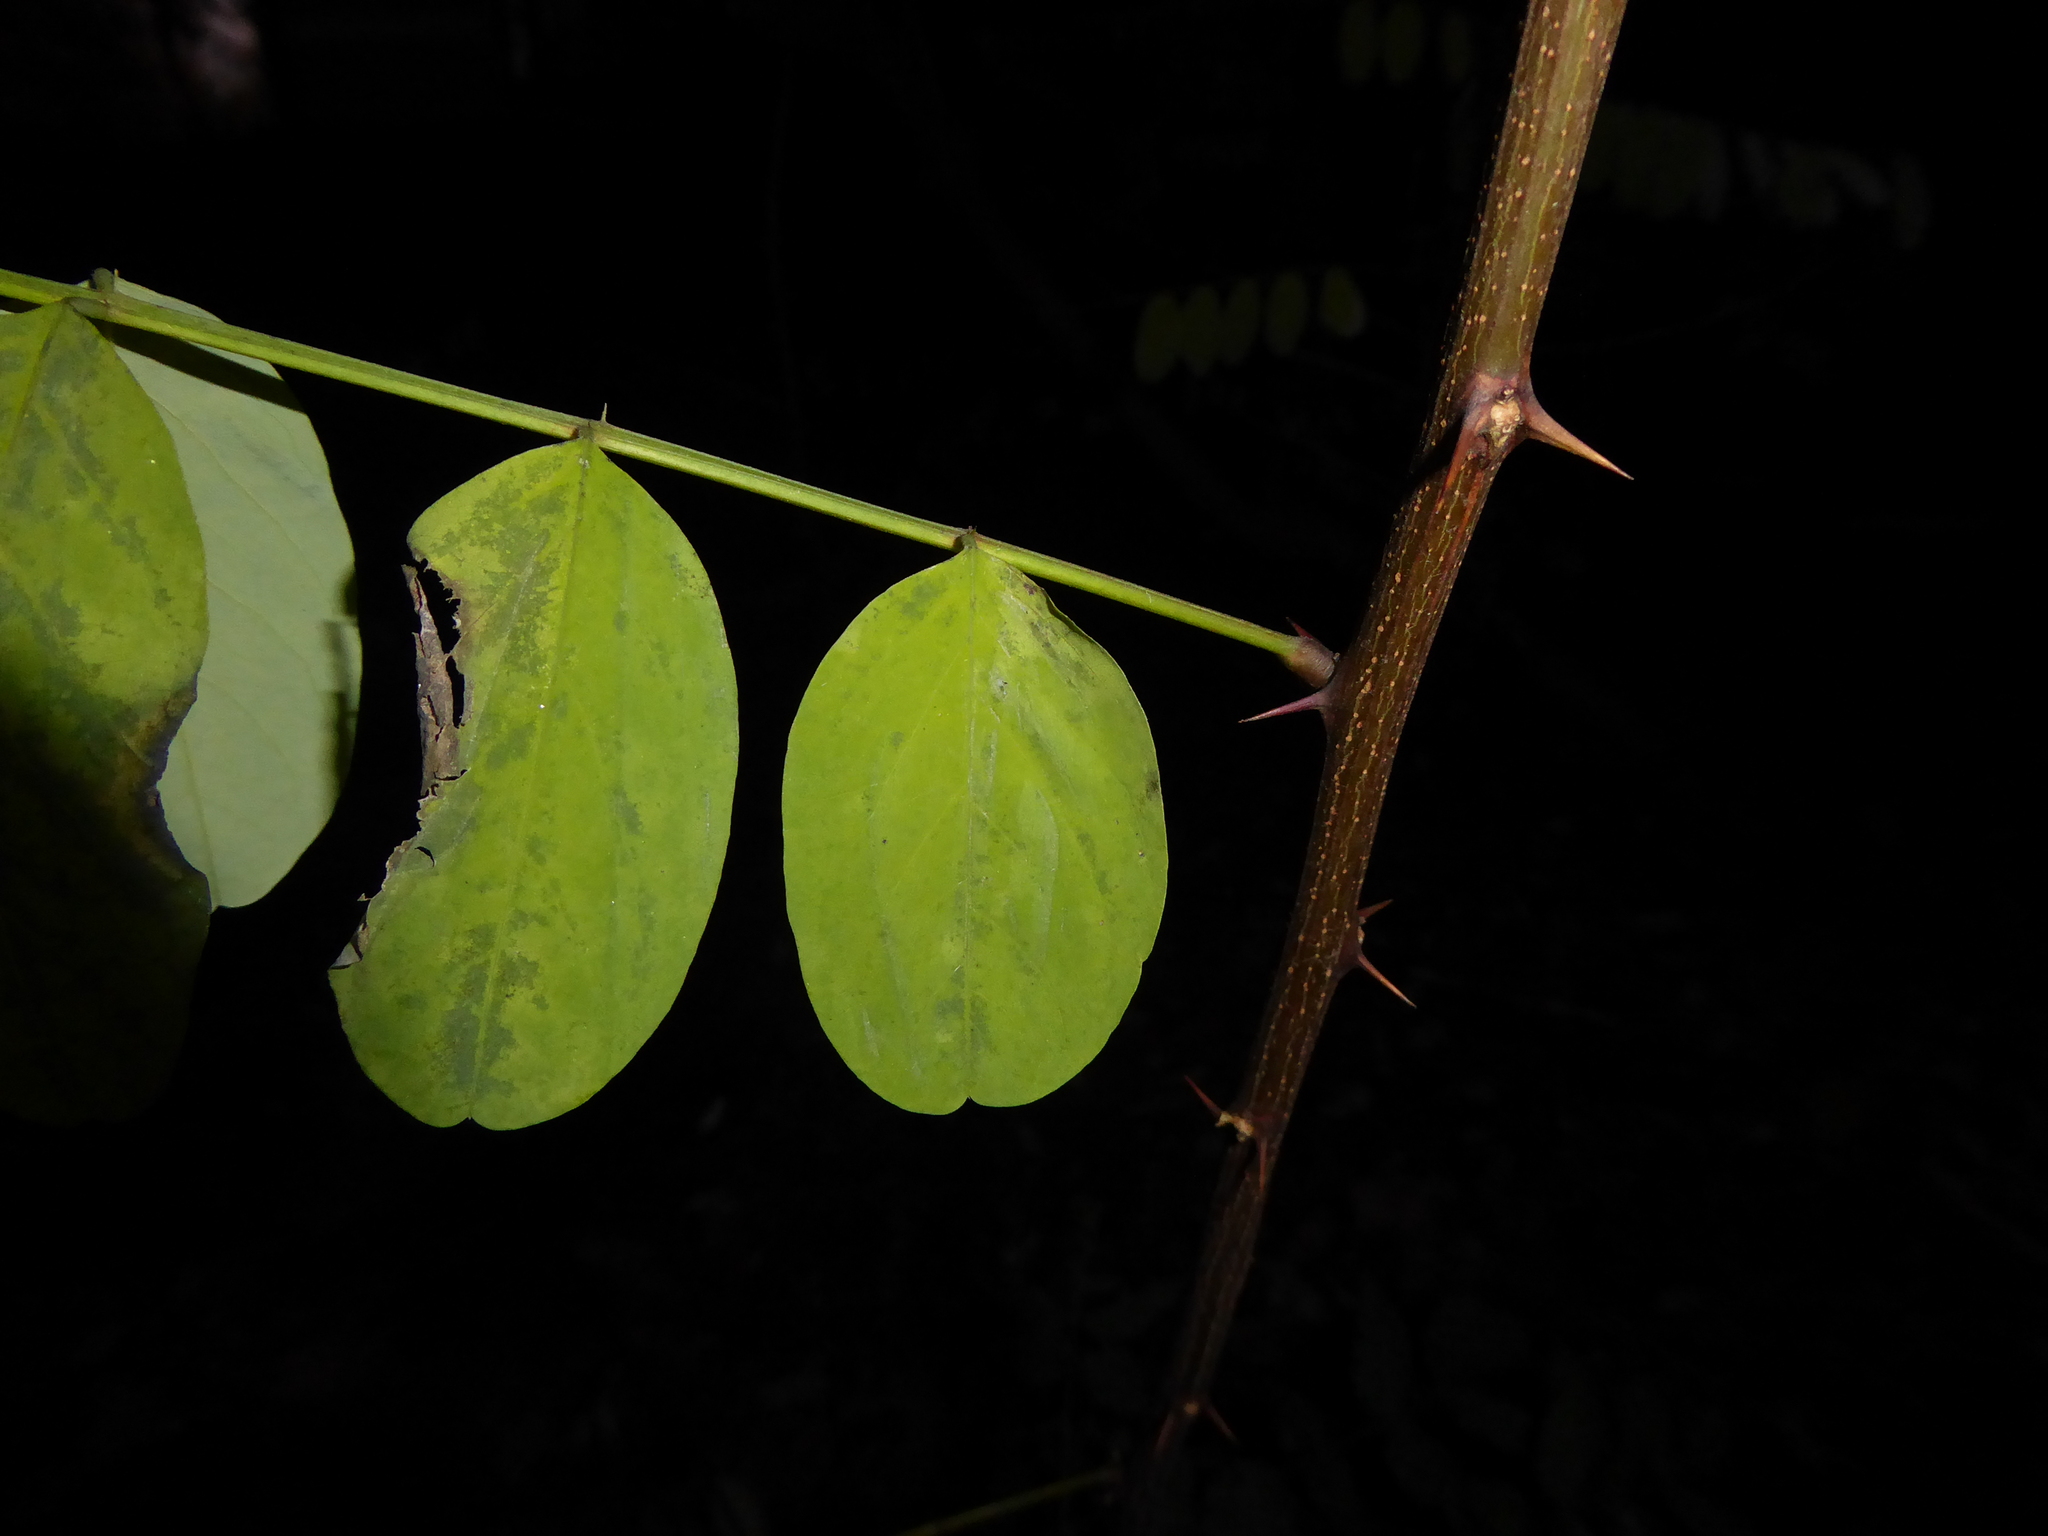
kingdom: Plantae
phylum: Tracheophyta
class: Magnoliopsida
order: Fabales
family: Fabaceae
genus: Robinia
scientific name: Robinia pseudoacacia
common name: Black locust
